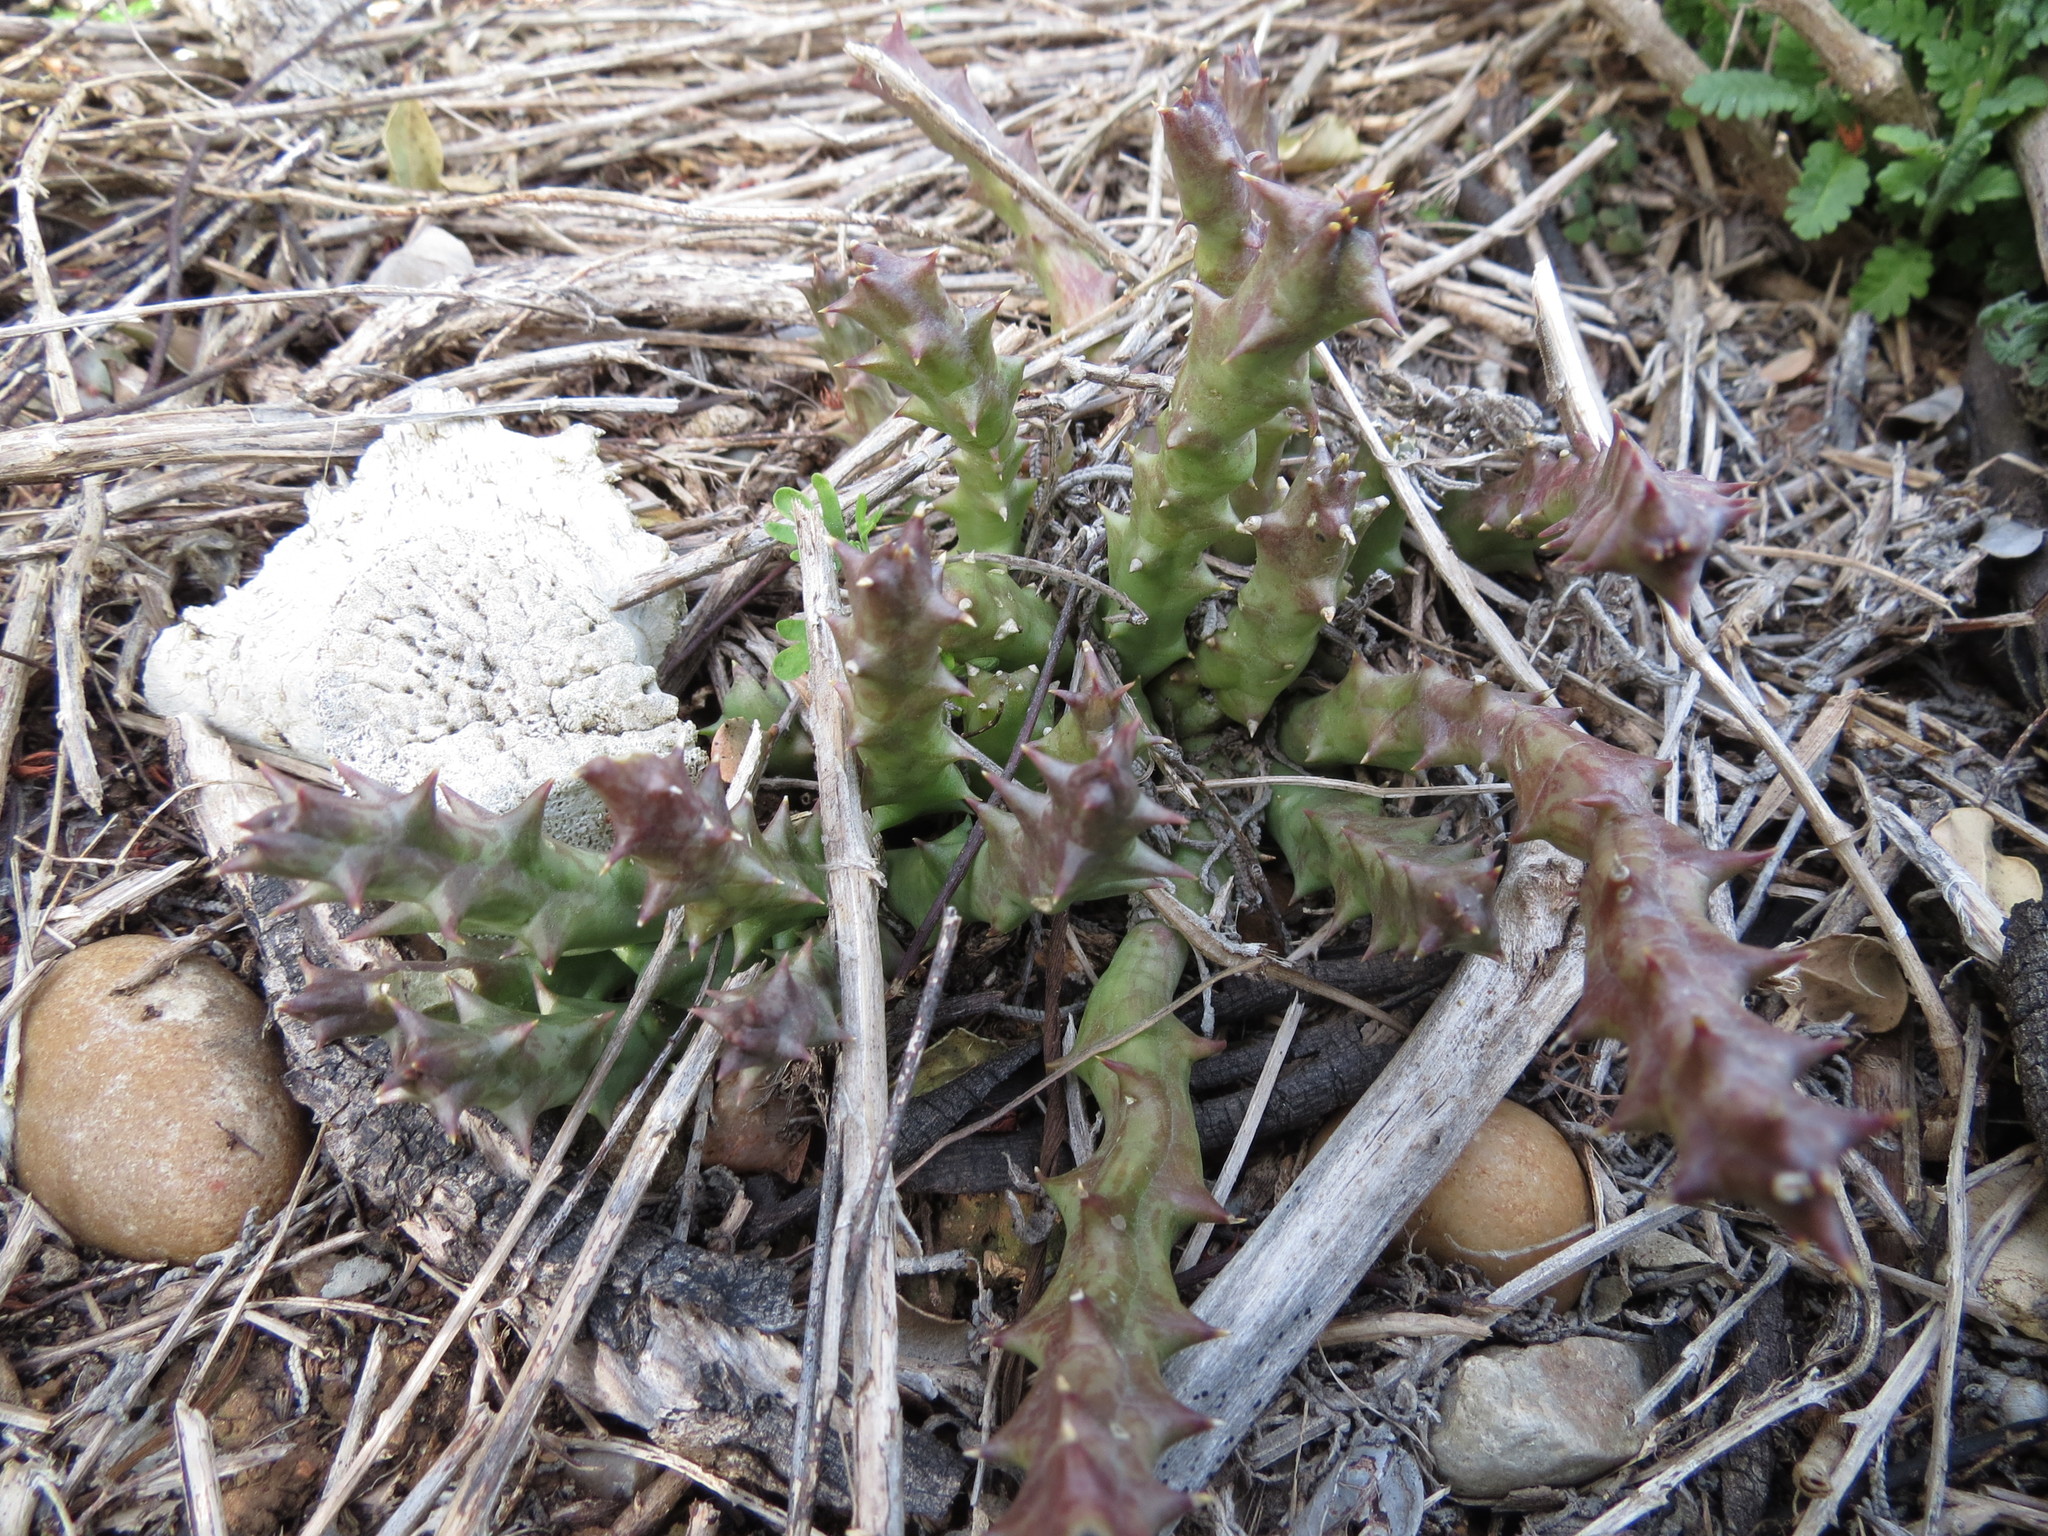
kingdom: Plantae
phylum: Tracheophyta
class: Magnoliopsida
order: Gentianales
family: Apocynaceae
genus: Ceropegia
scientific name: Ceropegia mixta
